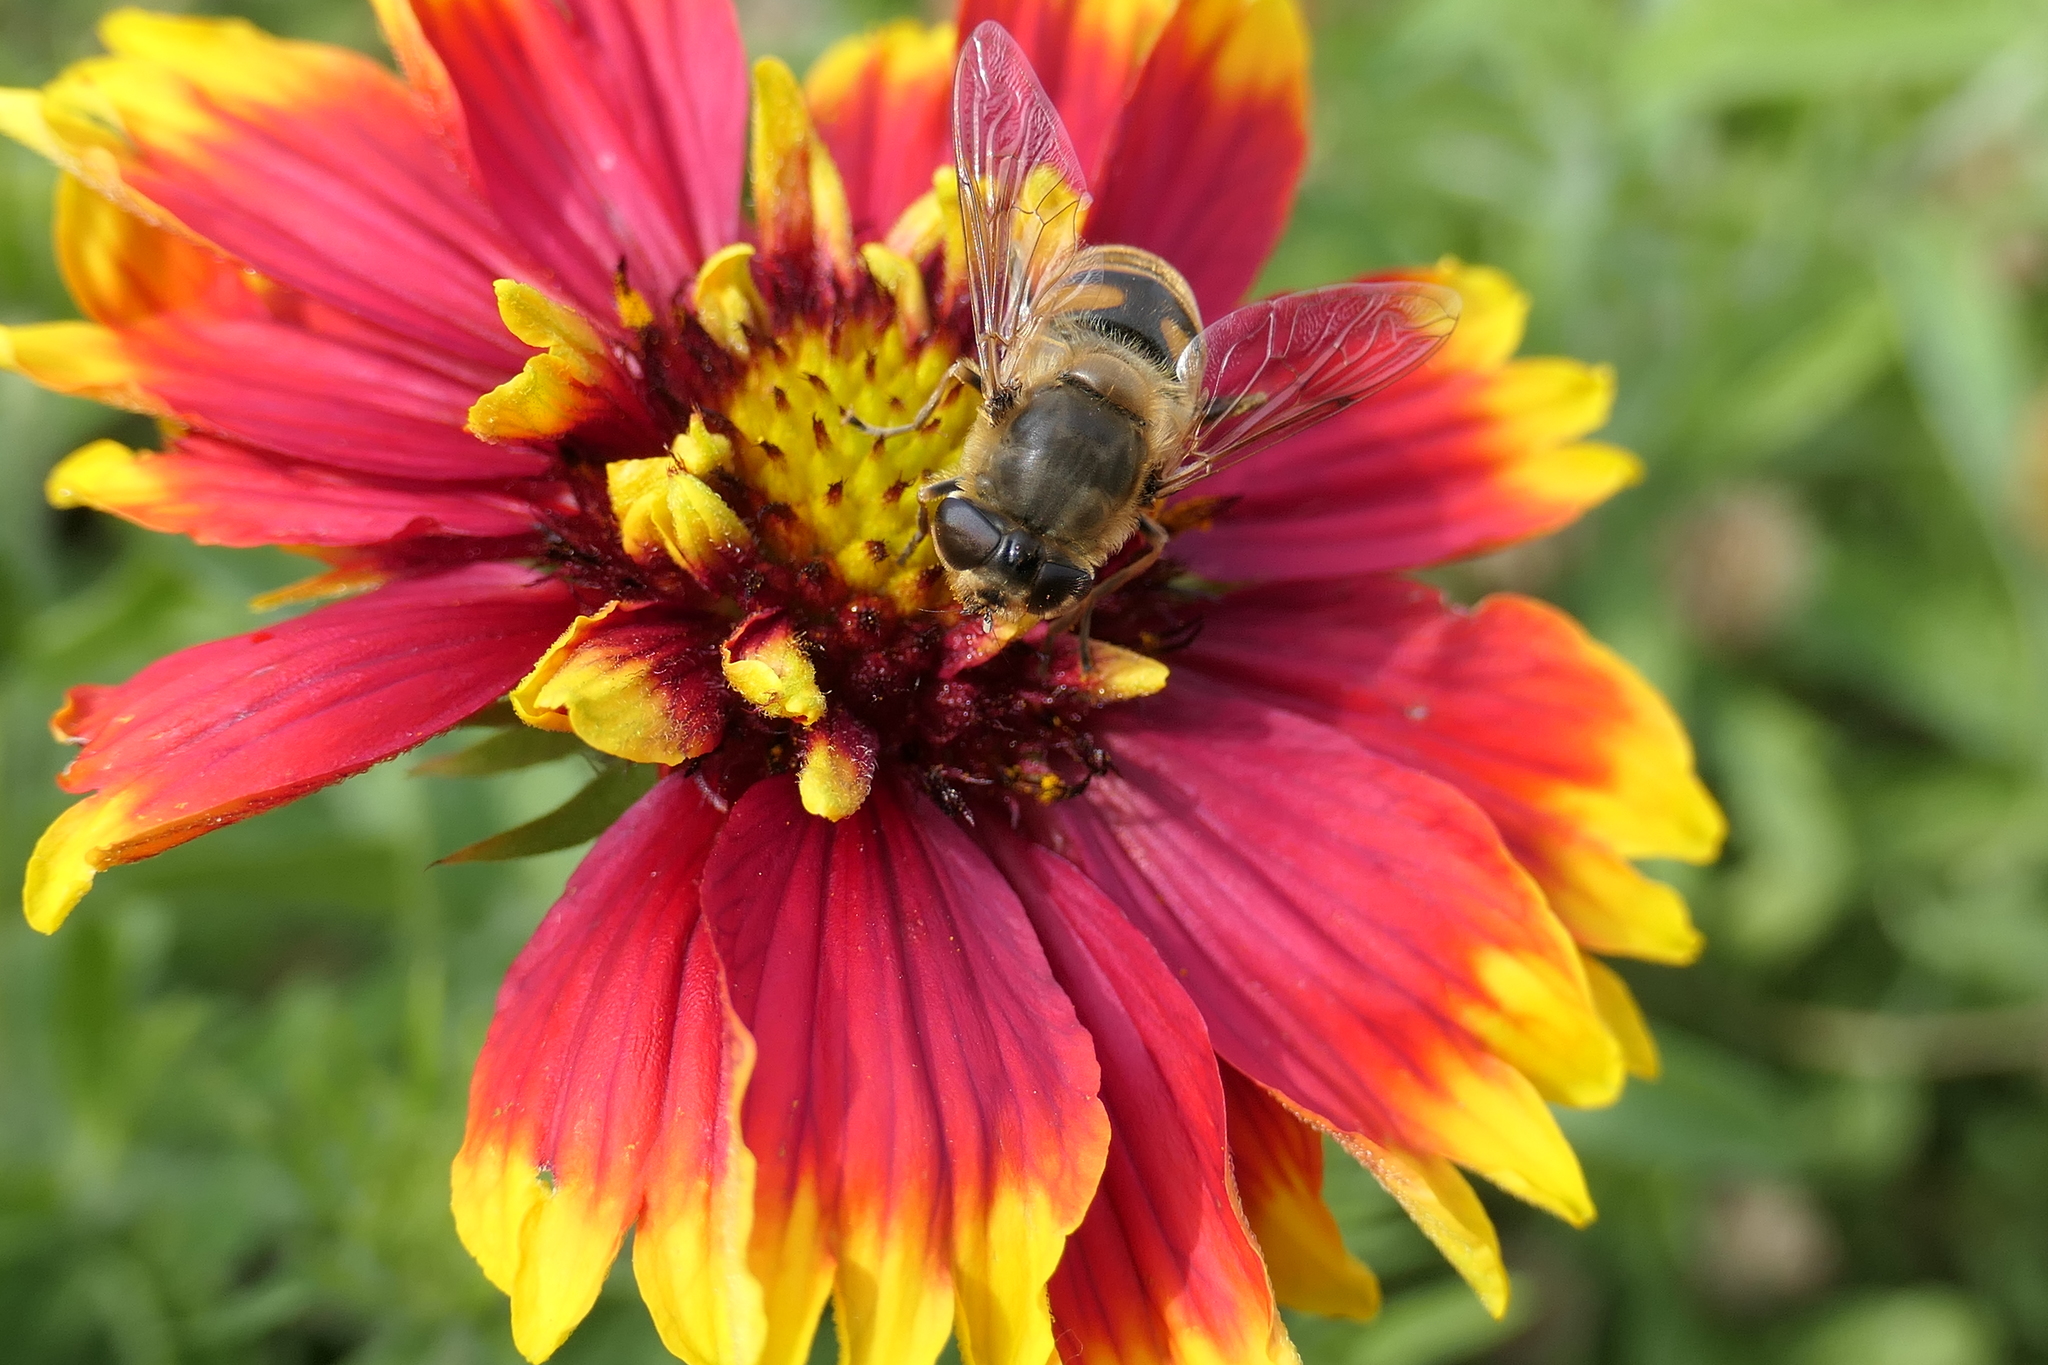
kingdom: Animalia
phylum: Arthropoda
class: Insecta
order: Diptera
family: Syrphidae
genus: Eristalis
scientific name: Eristalis tenax
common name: Drone fly
